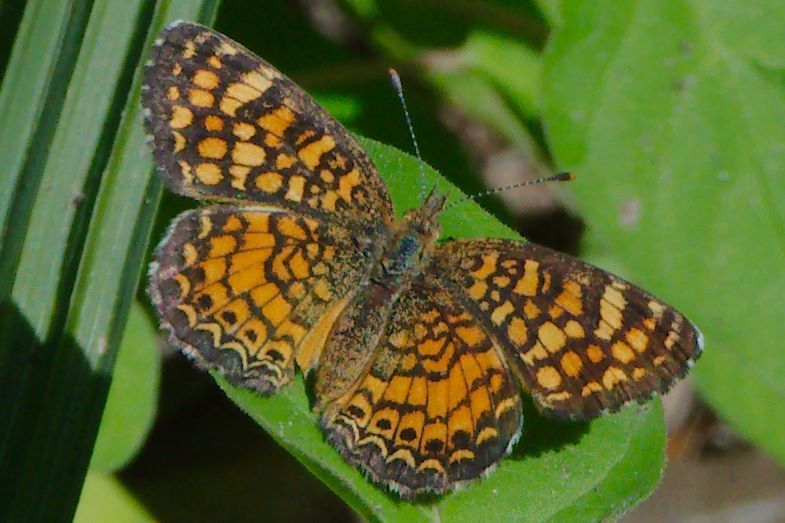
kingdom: Animalia
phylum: Arthropoda
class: Insecta
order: Lepidoptera
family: Nymphalidae
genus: Phyciodes
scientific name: Phyciodes vesta
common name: Vesta crescent
